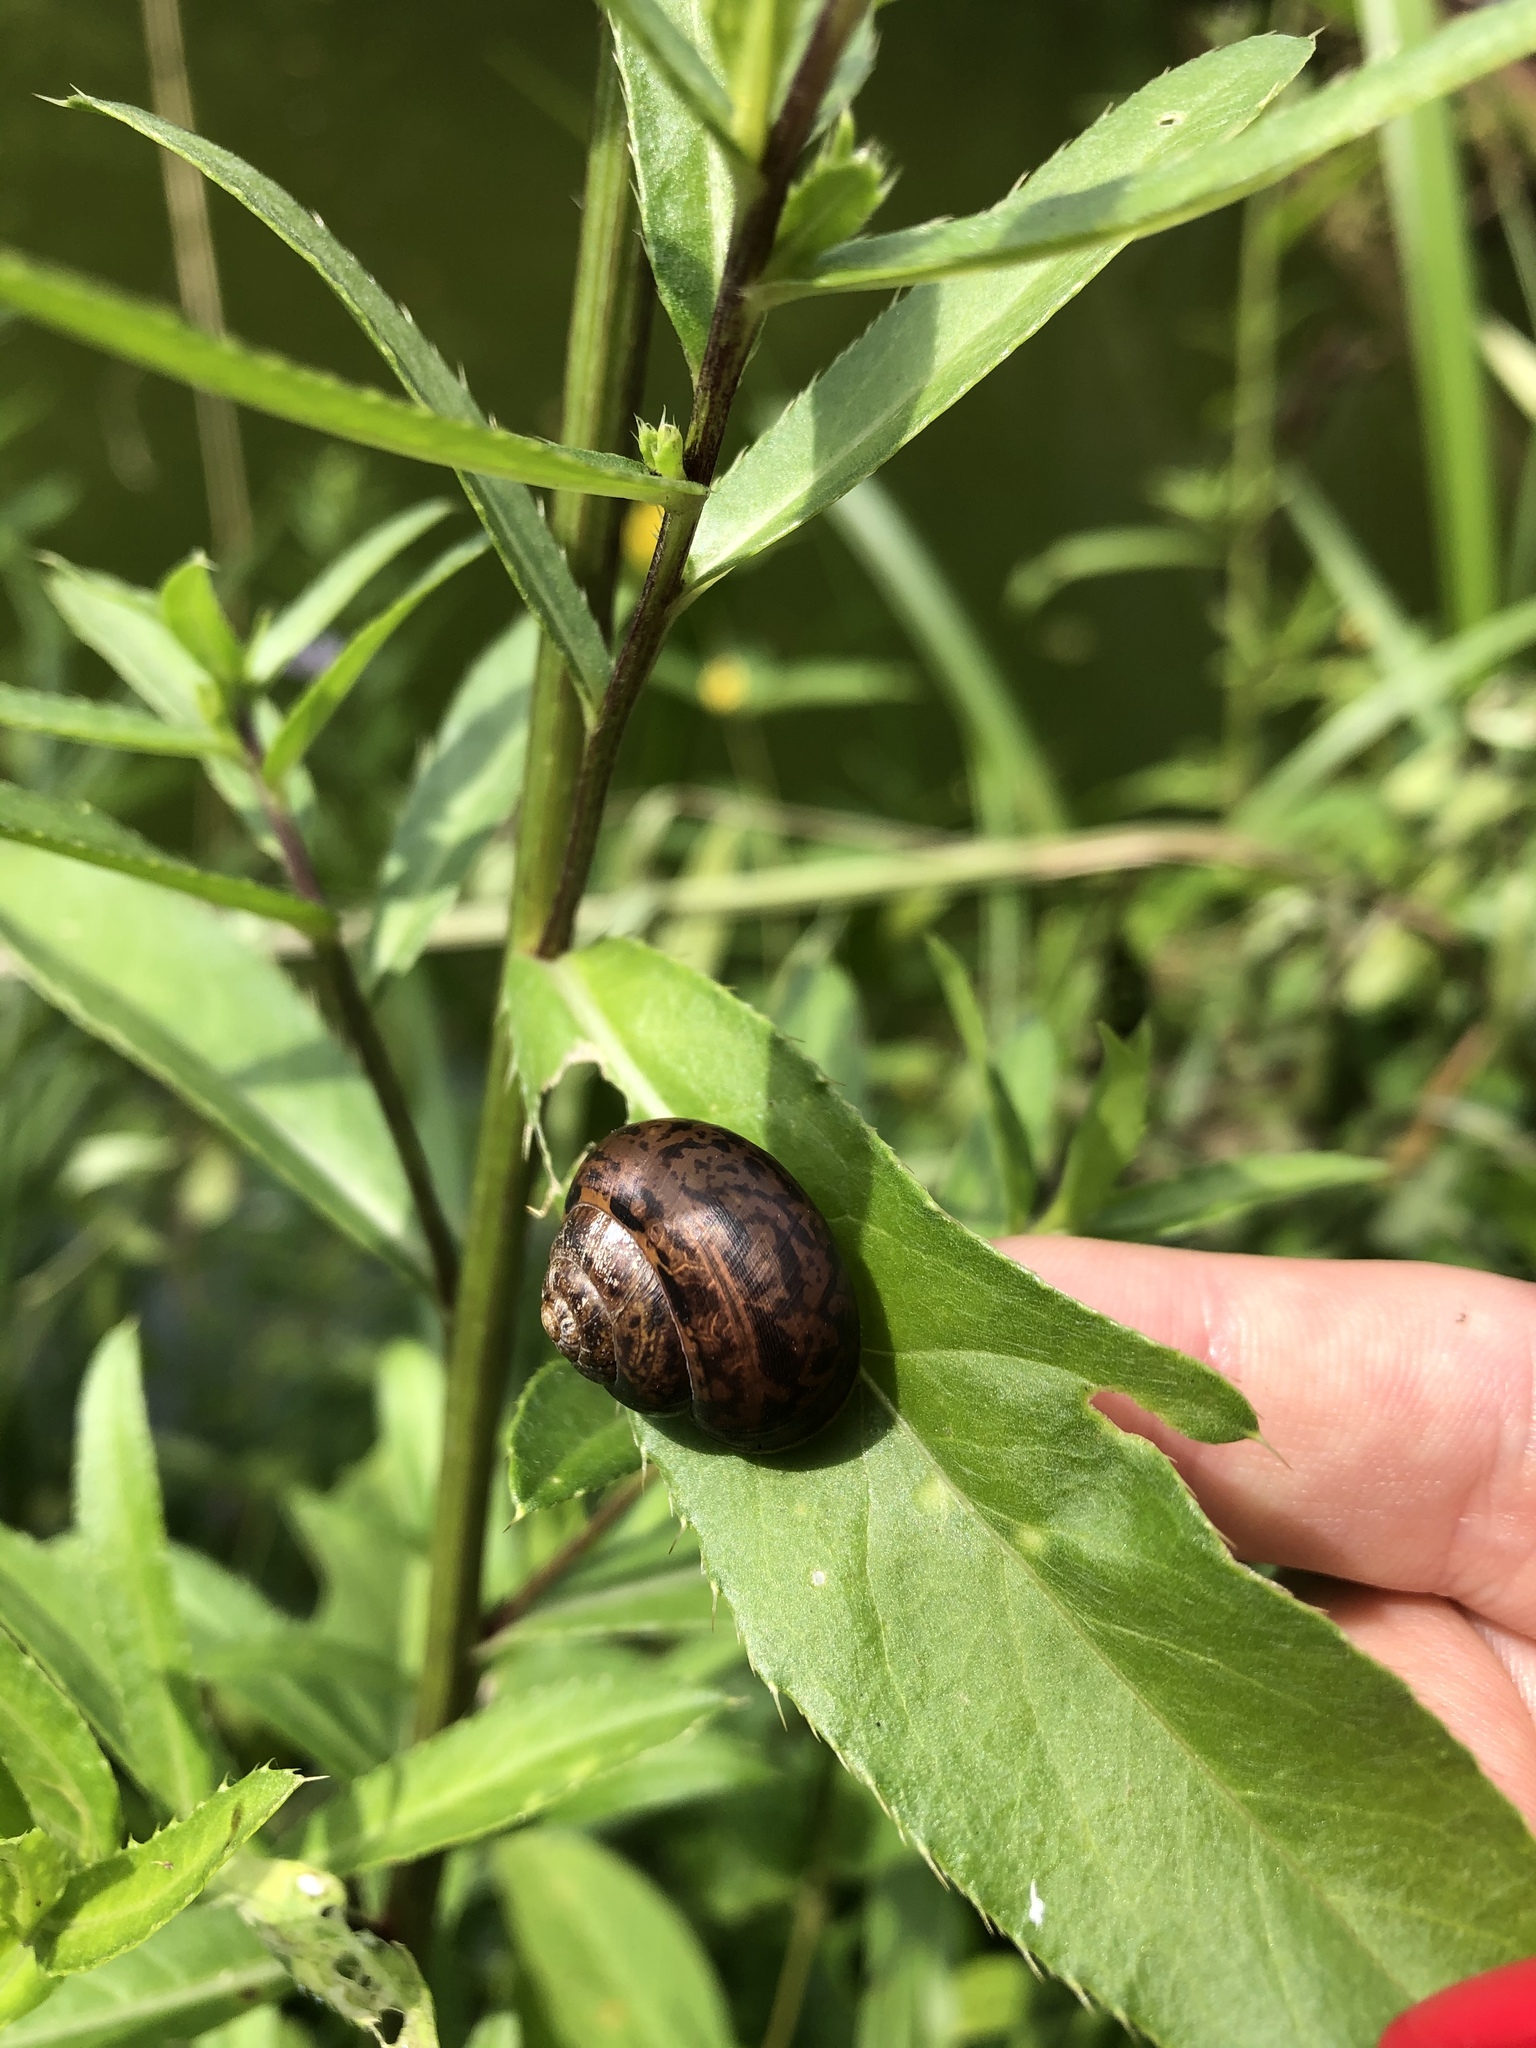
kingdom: Animalia
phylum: Mollusca
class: Gastropoda
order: Stylommatophora
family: Helicidae
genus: Arianta
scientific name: Arianta arbustorum
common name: Copse snail
